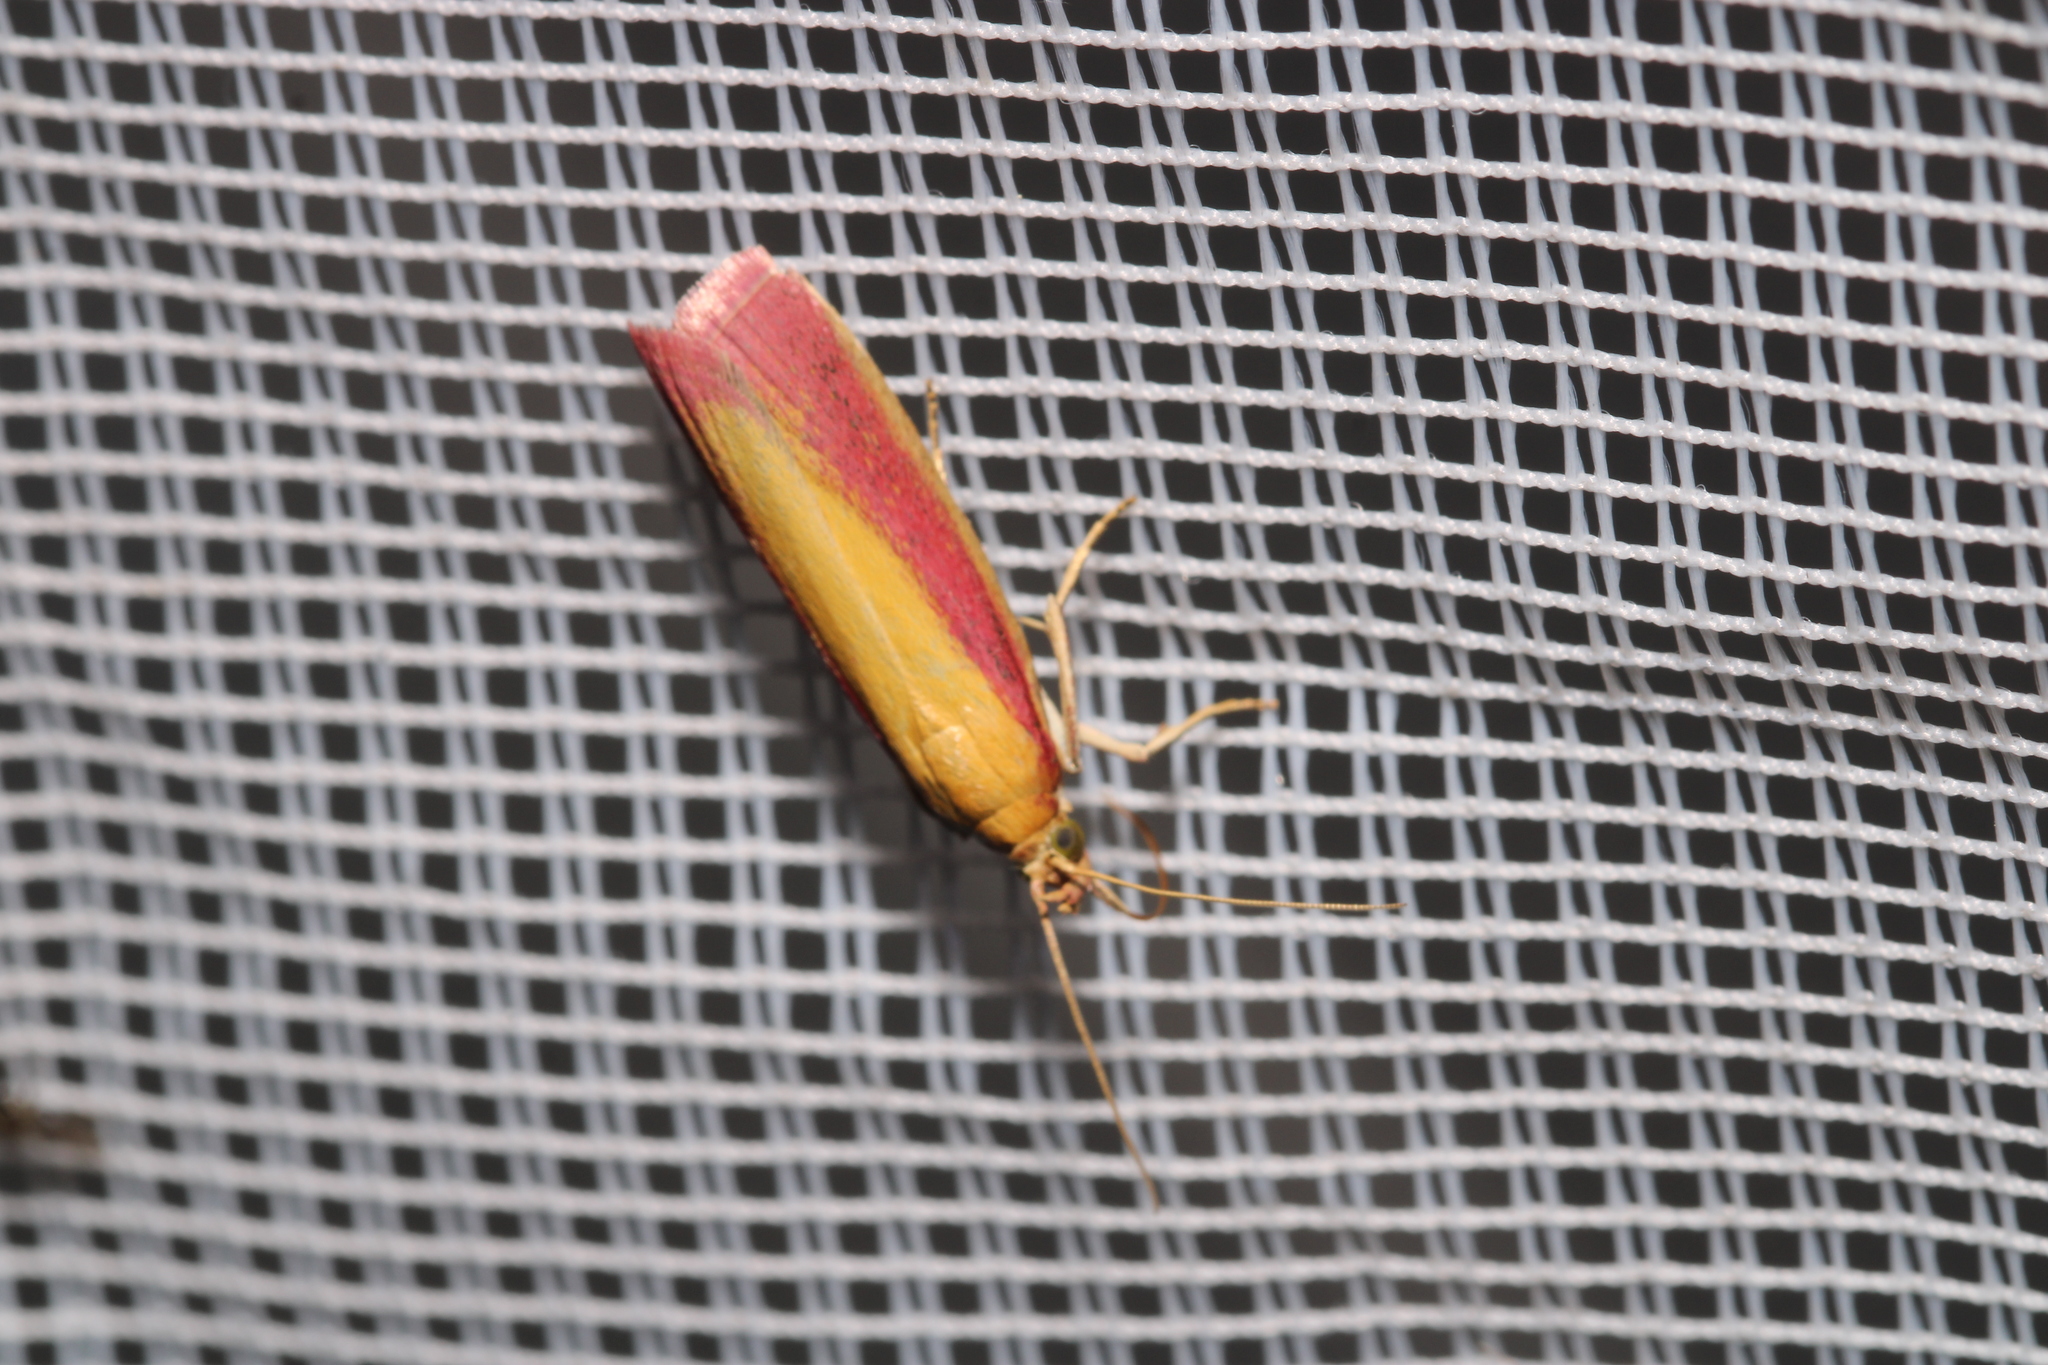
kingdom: Animalia
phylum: Arthropoda
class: Insecta
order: Lepidoptera
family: Pyralidae
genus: Oncocera
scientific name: Oncocera semirubella
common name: Rosy-striped knot-horn
